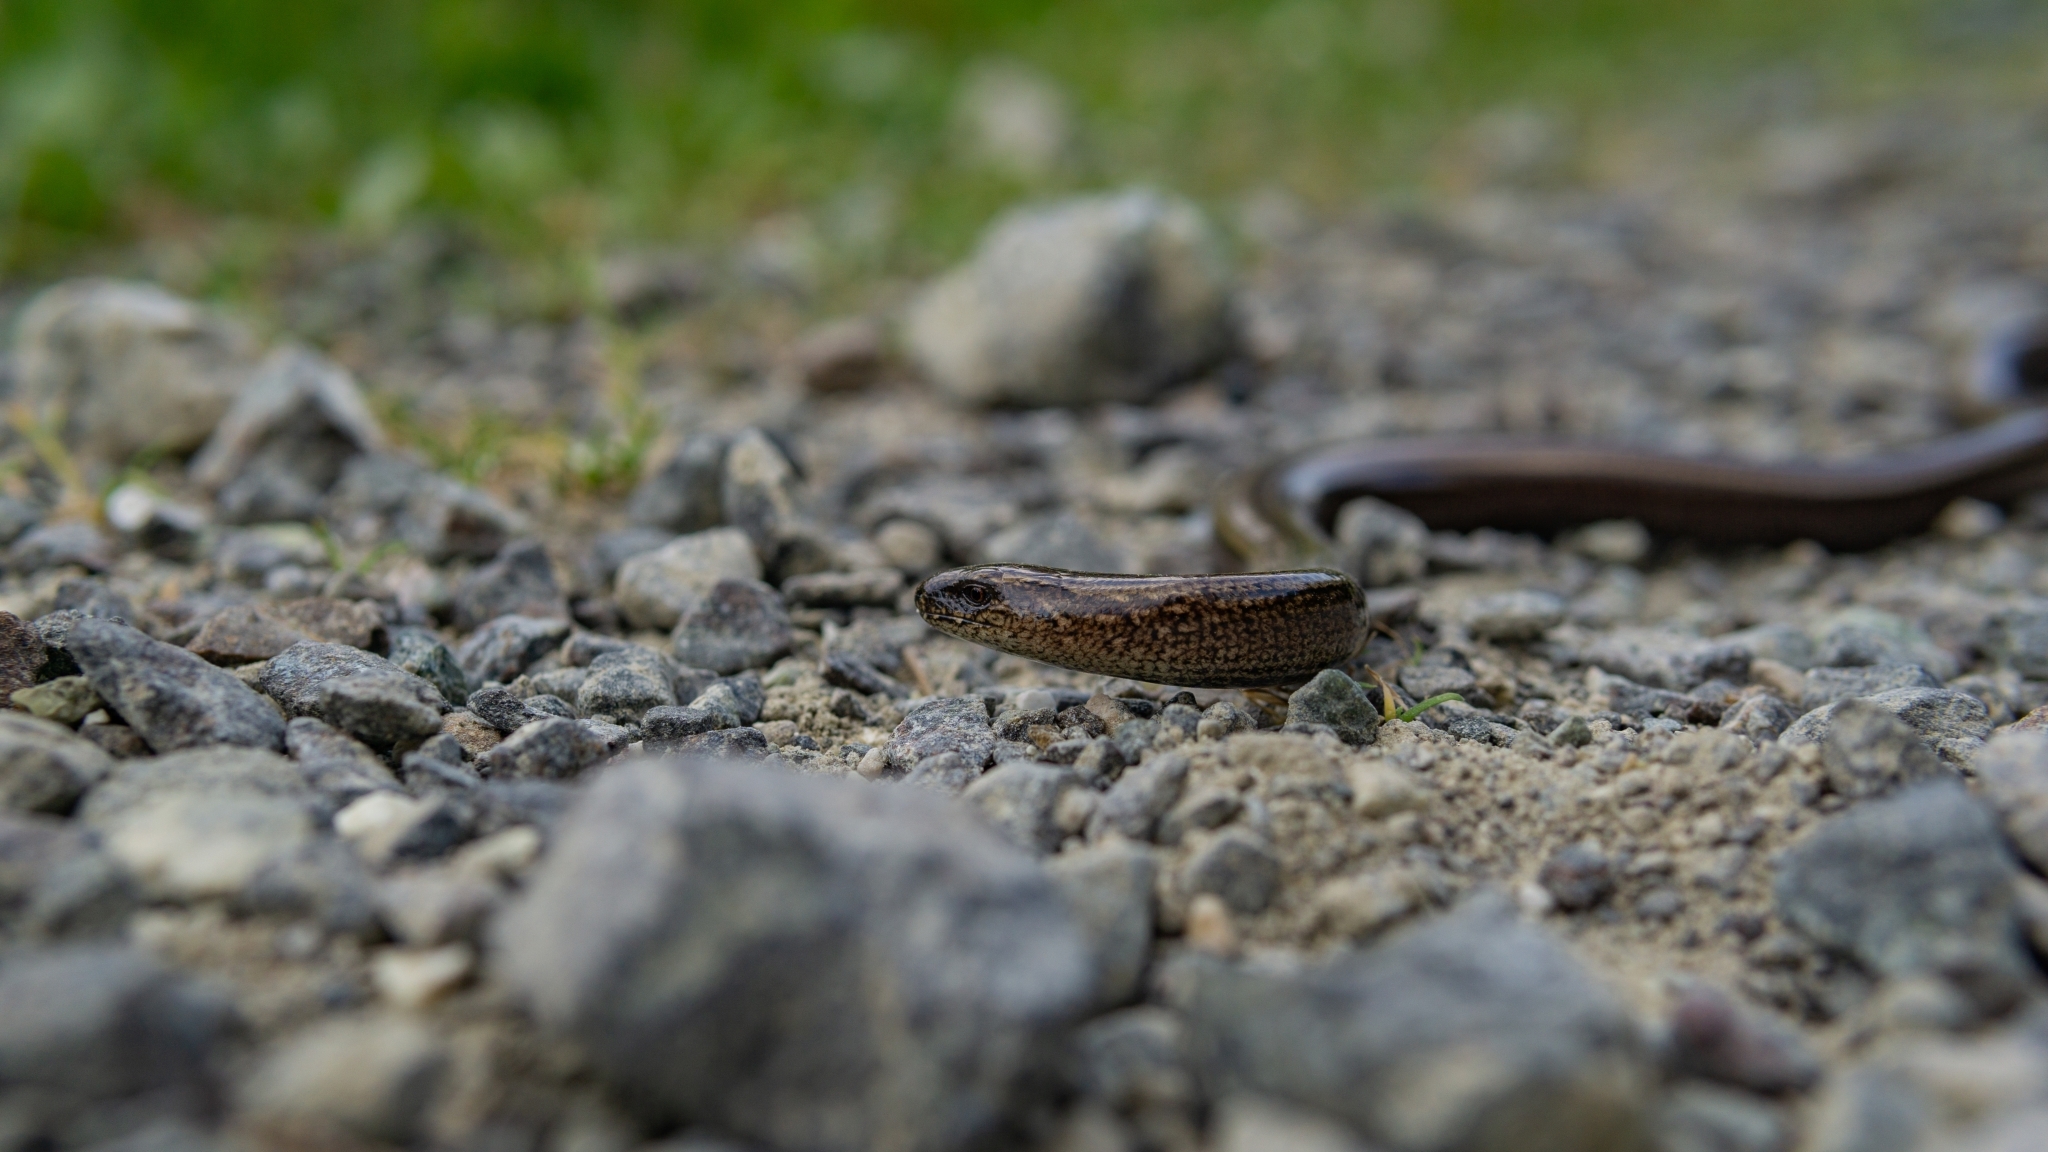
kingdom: Animalia
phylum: Chordata
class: Squamata
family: Anguidae
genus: Anguis
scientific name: Anguis fragilis
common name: Slow worm
